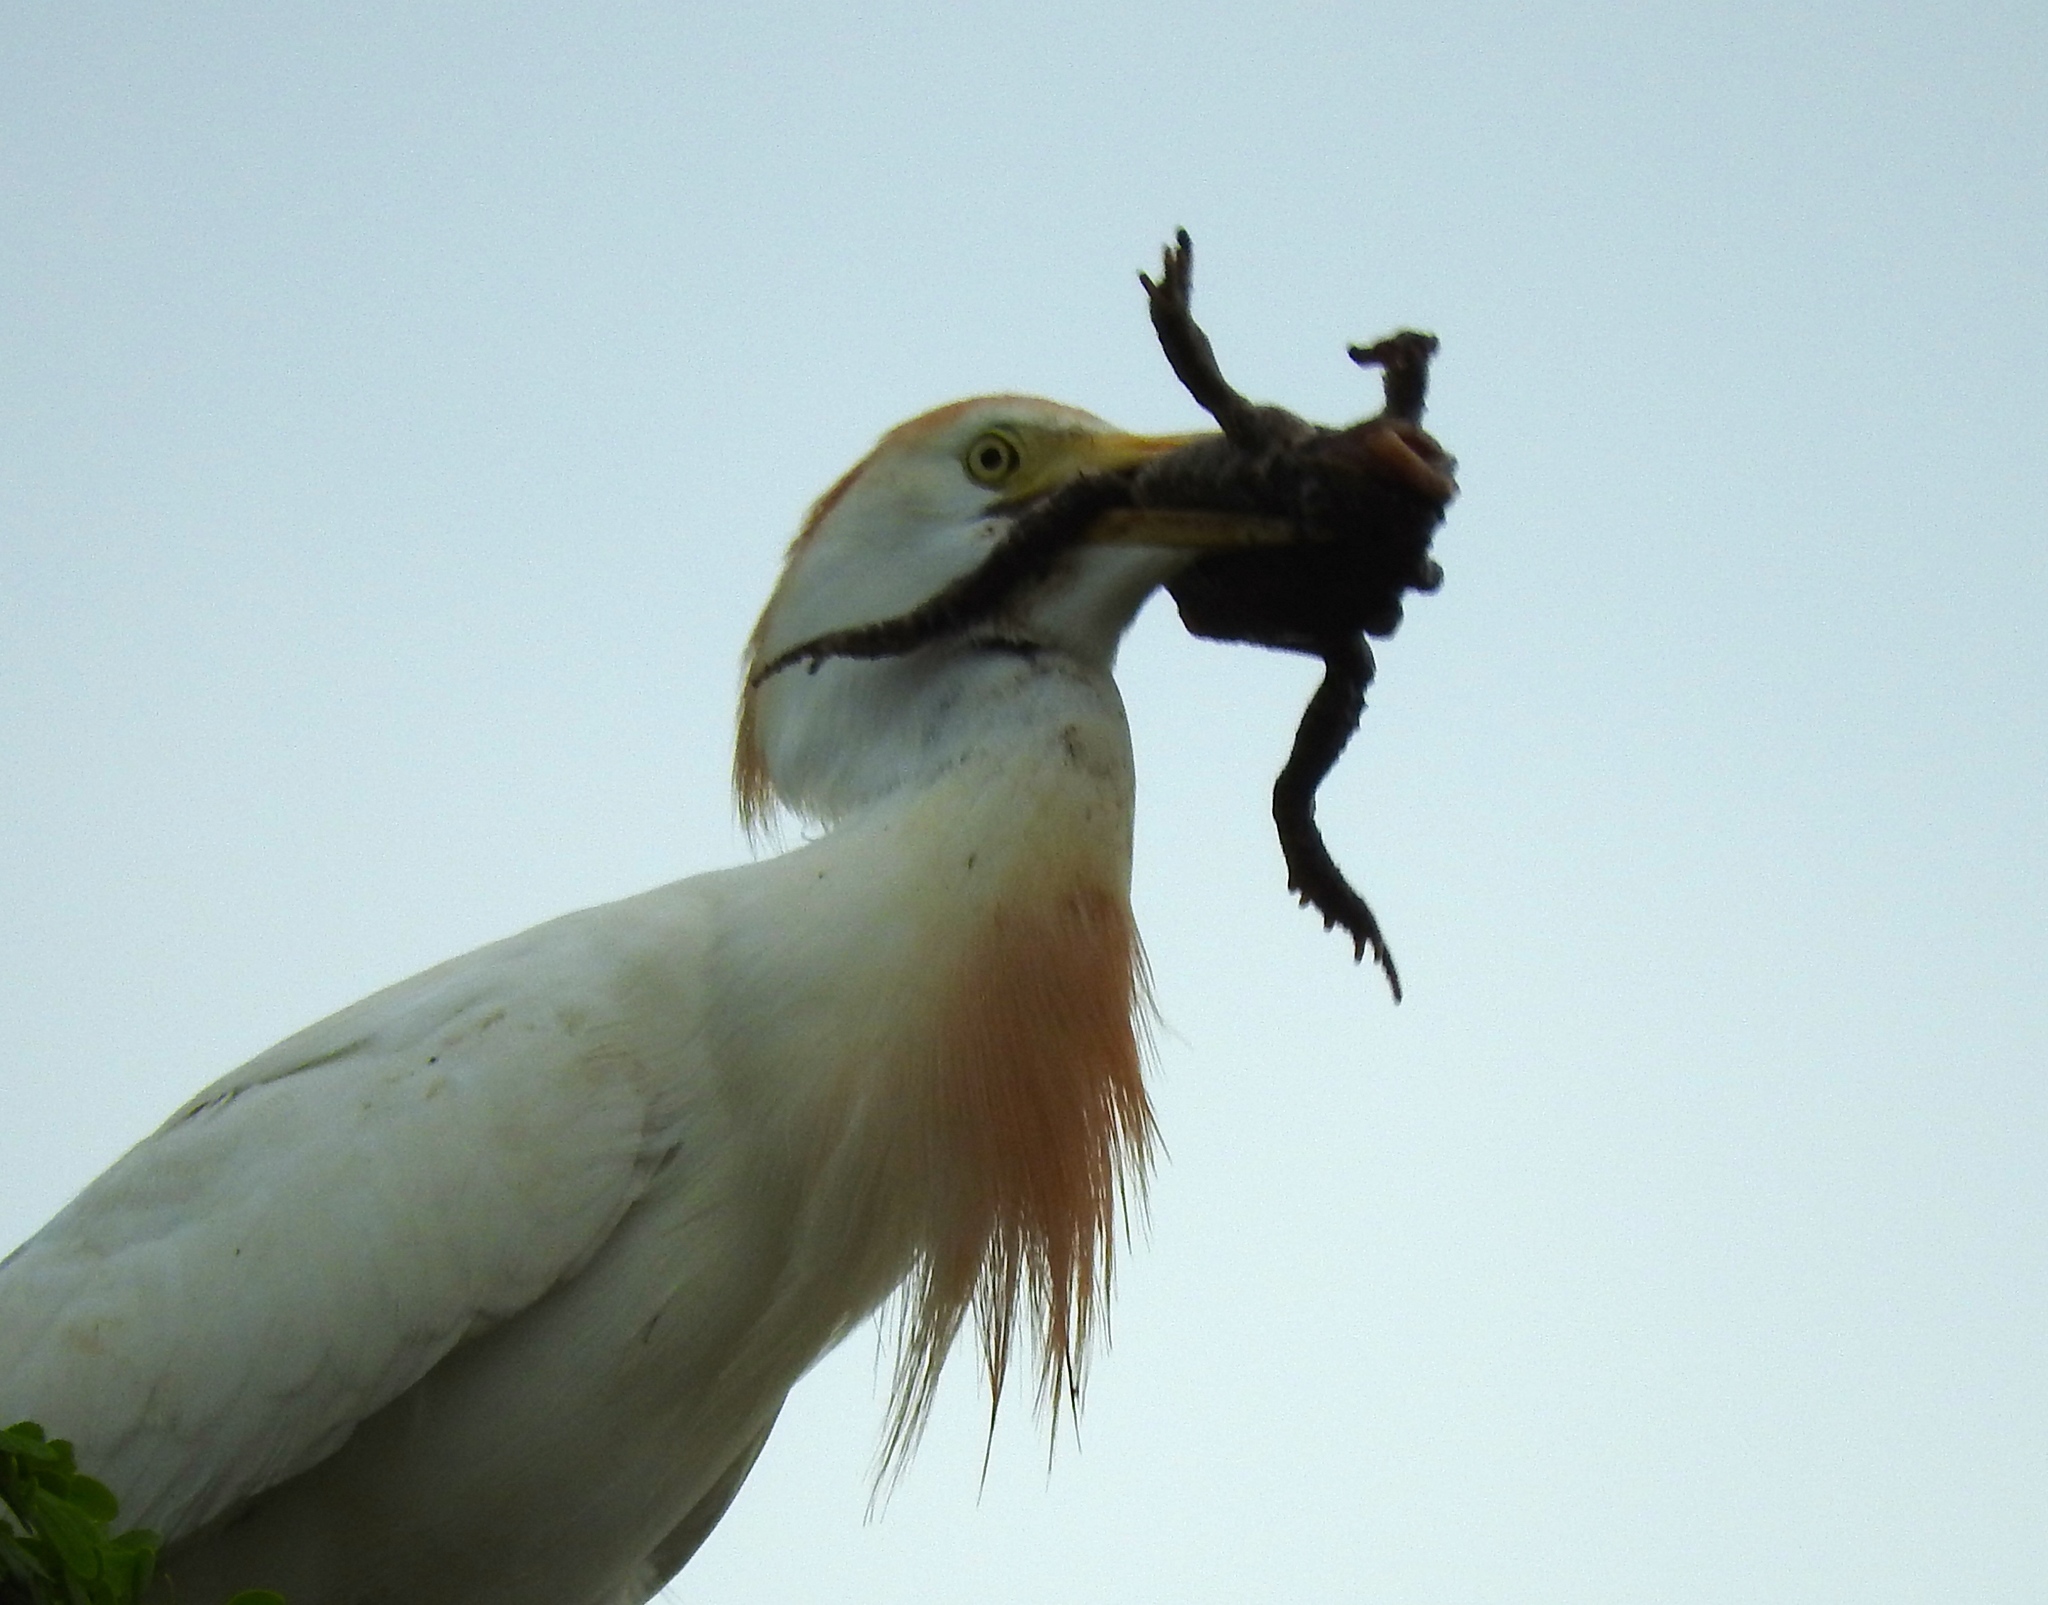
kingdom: Animalia
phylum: Chordata
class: Aves
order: Pelecaniformes
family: Ardeidae
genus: Bubulcus
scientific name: Bubulcus ibis
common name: Cattle egret
